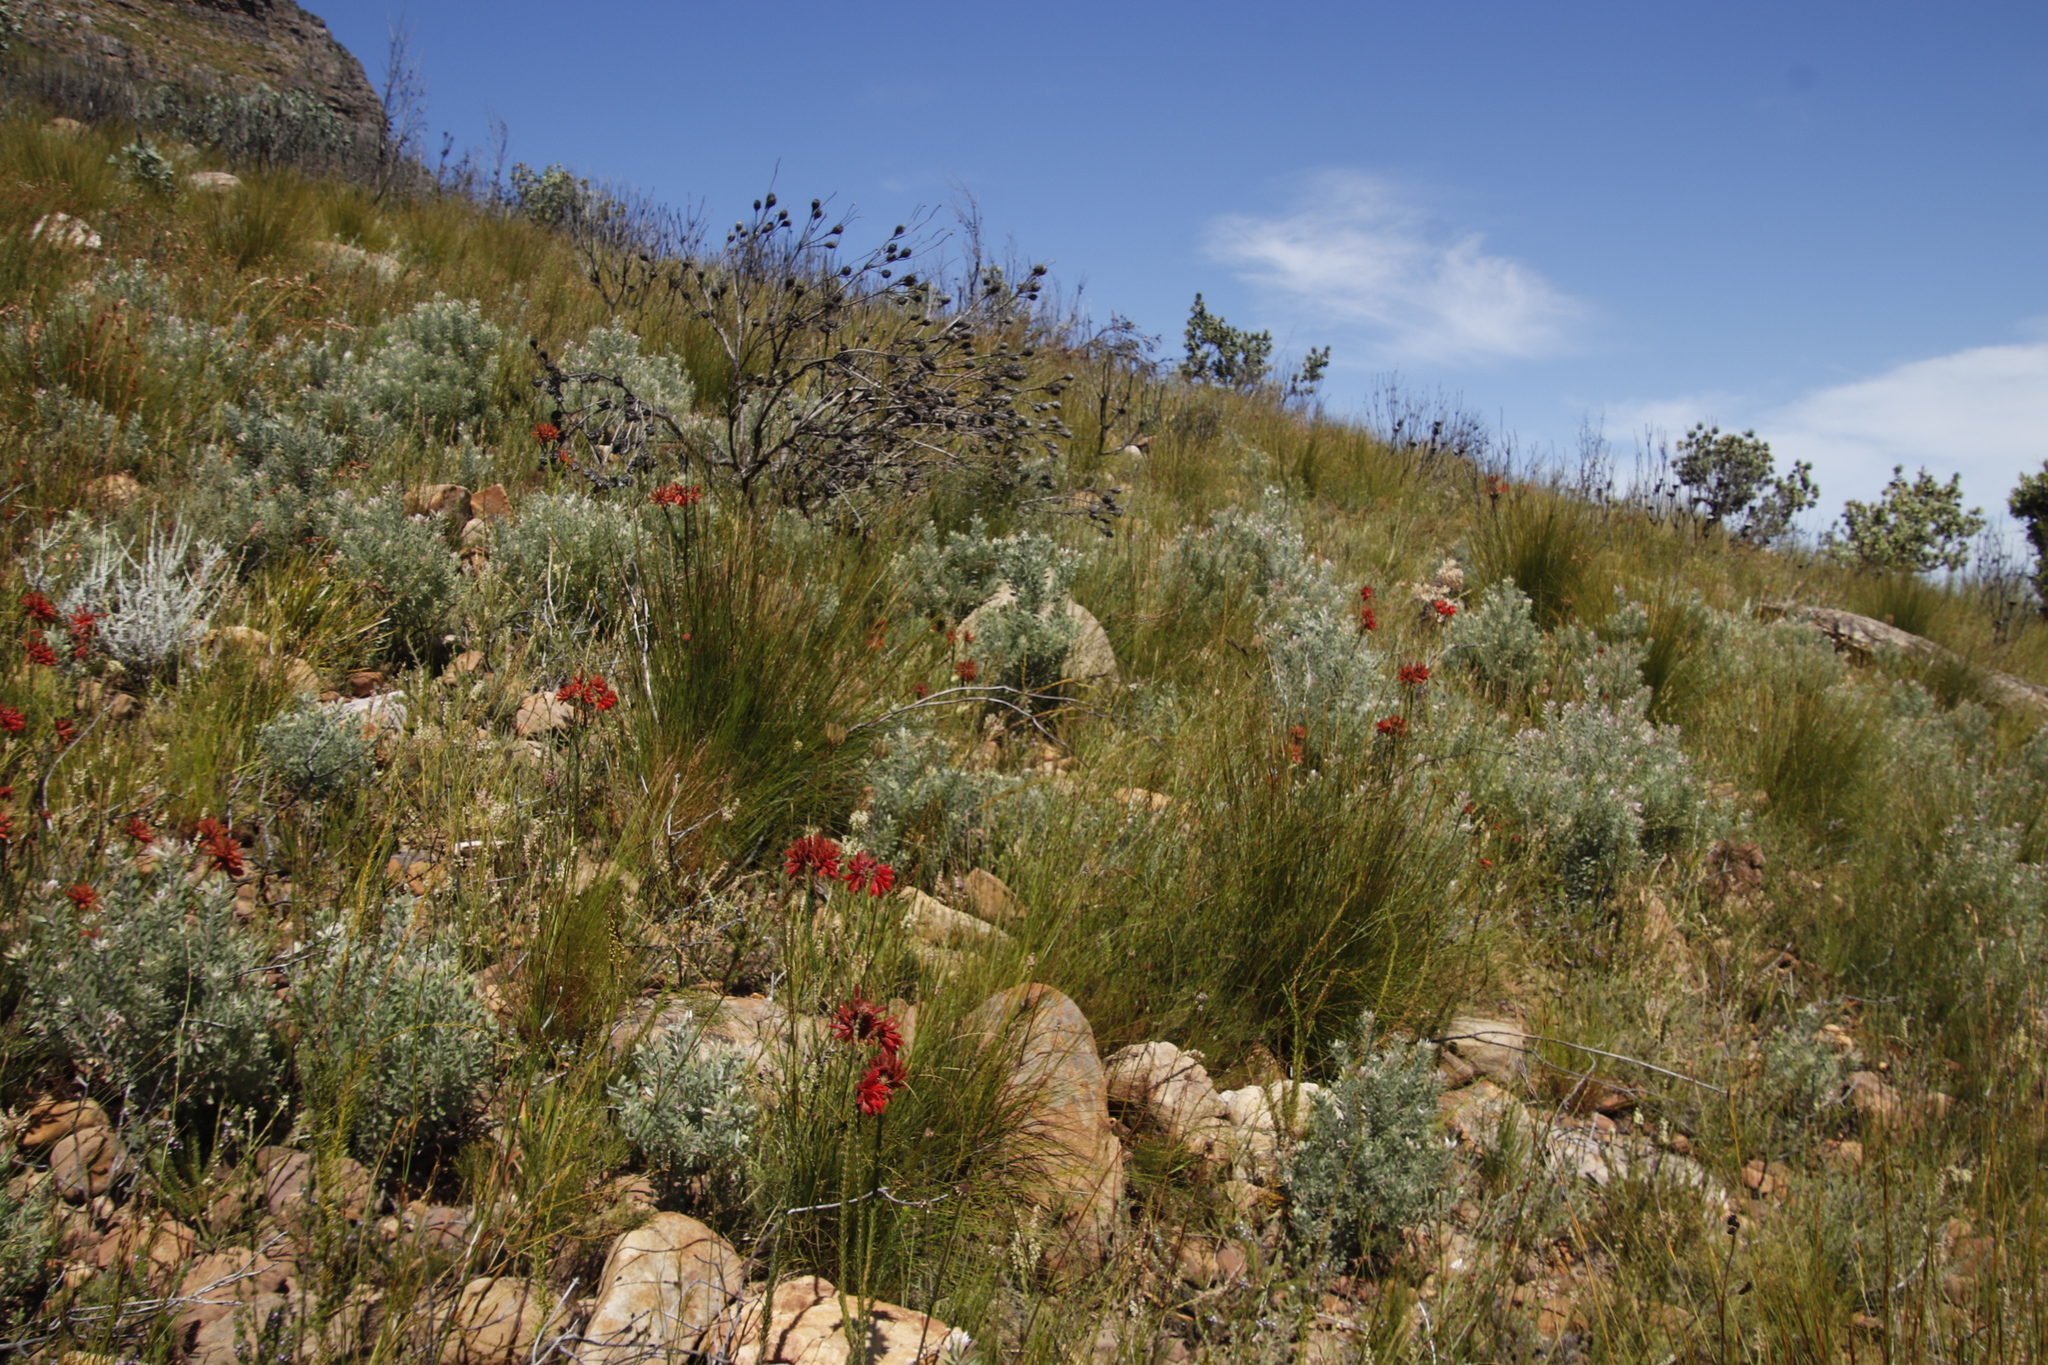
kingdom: Plantae
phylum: Tracheophyta
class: Magnoliopsida
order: Ericales
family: Ericaceae
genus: Erica
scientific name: Erica cerinthoides
